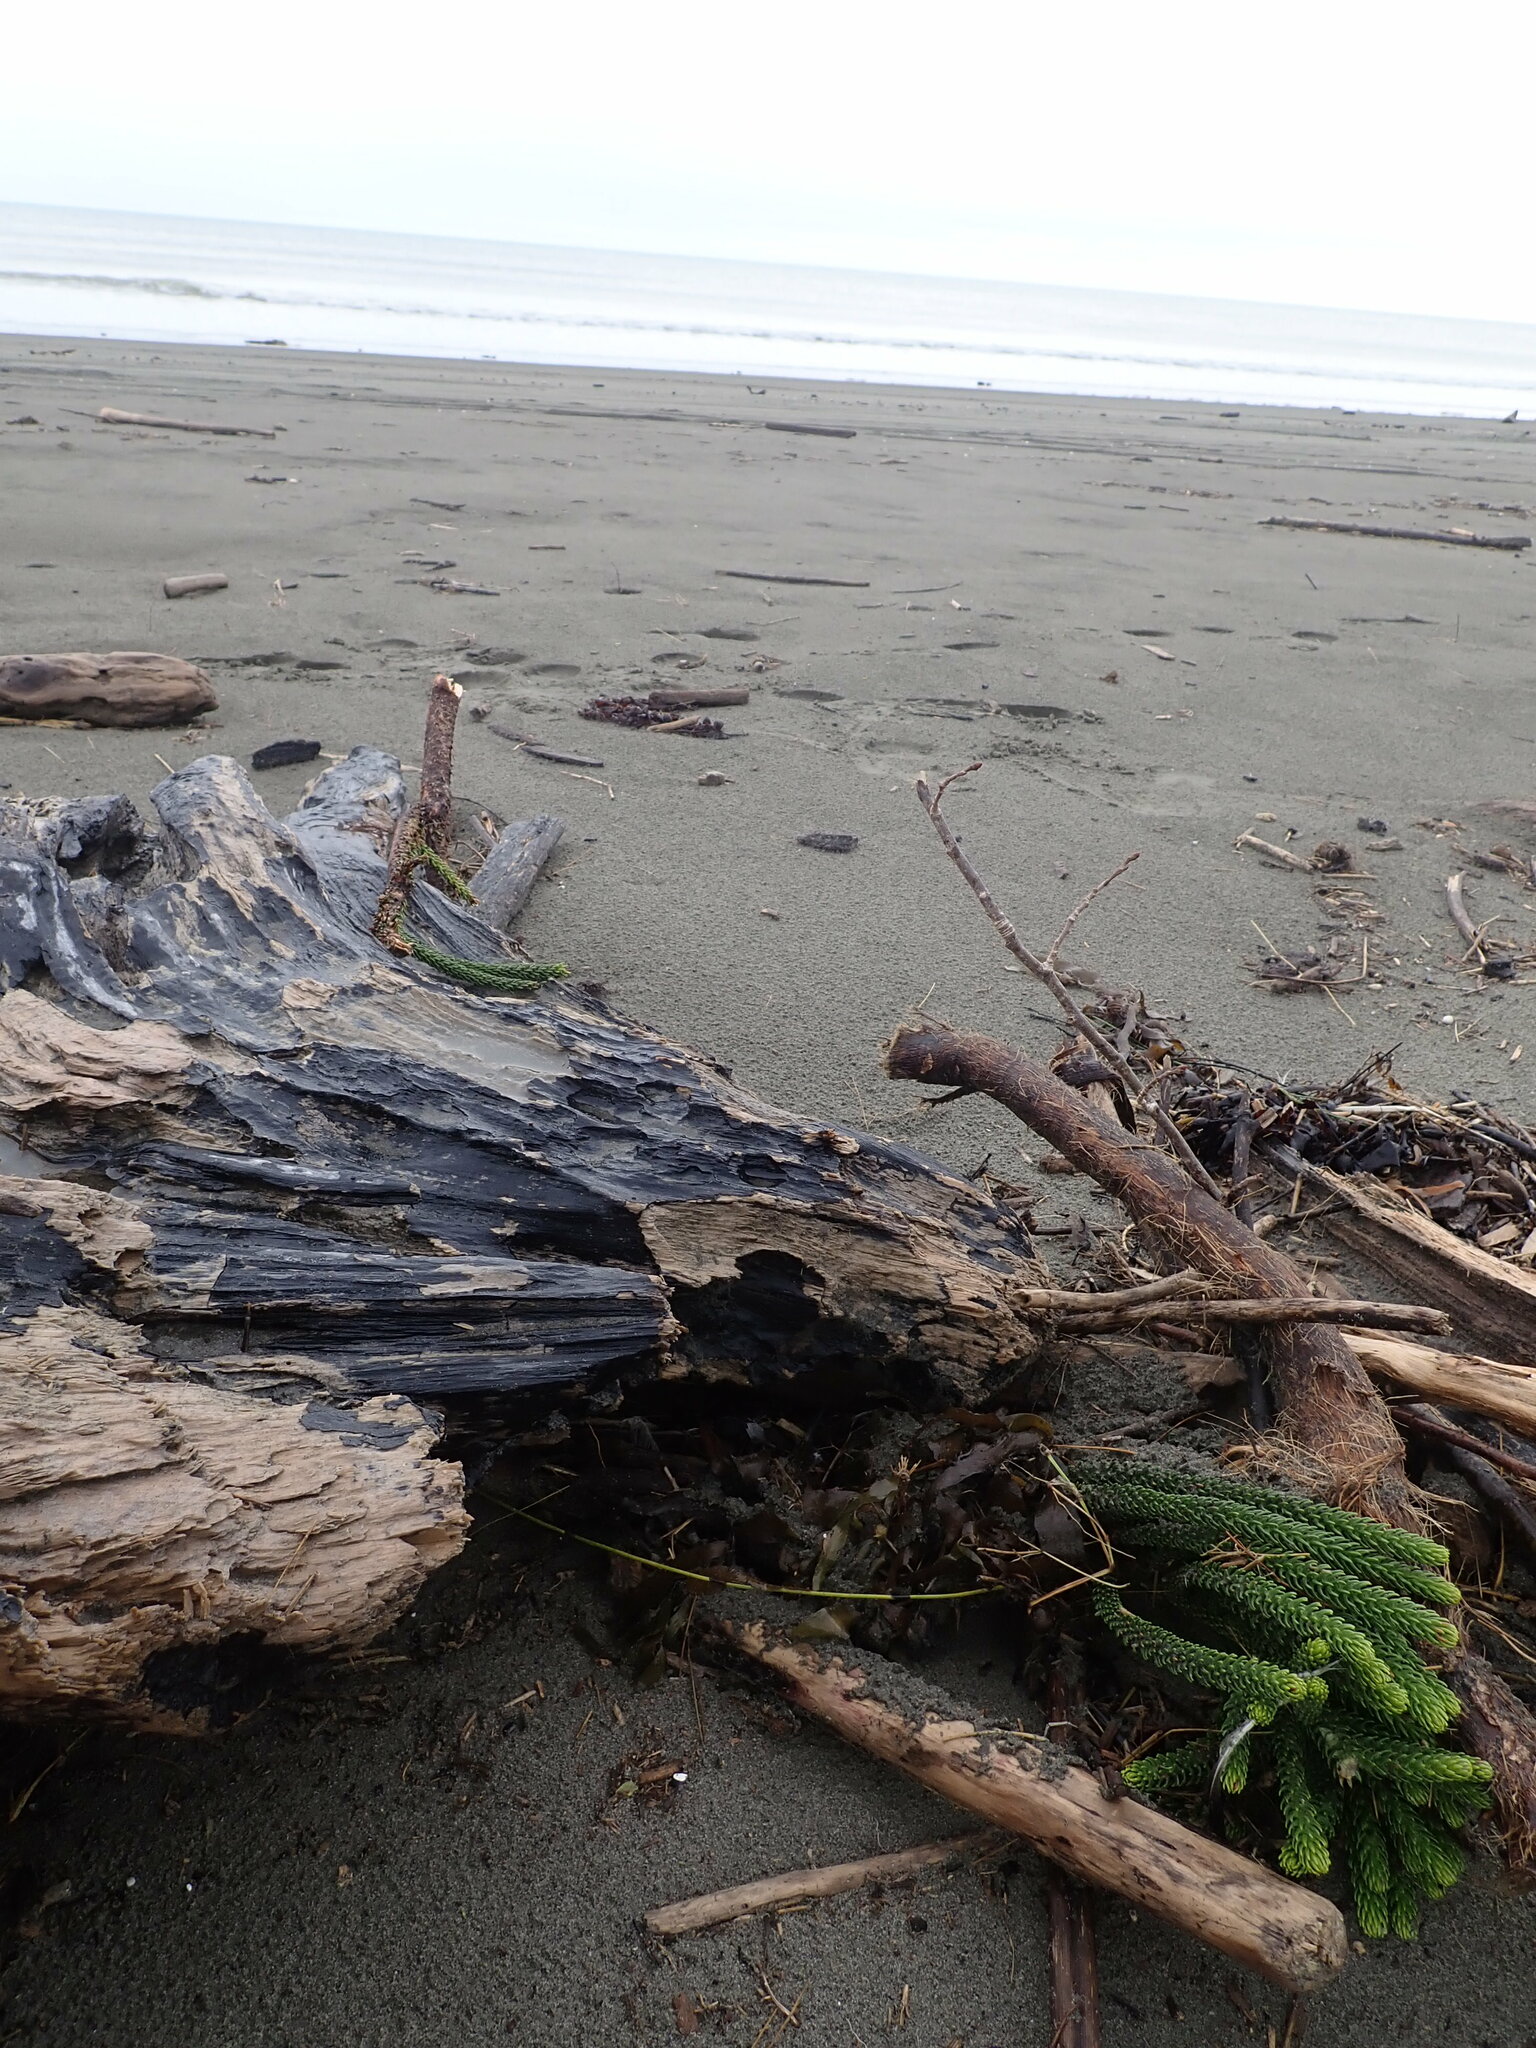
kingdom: Plantae
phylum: Tracheophyta
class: Pinopsida
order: Pinales
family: Araucariaceae
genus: Araucaria
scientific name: Araucaria heterophylla
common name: Norfolk island pine
